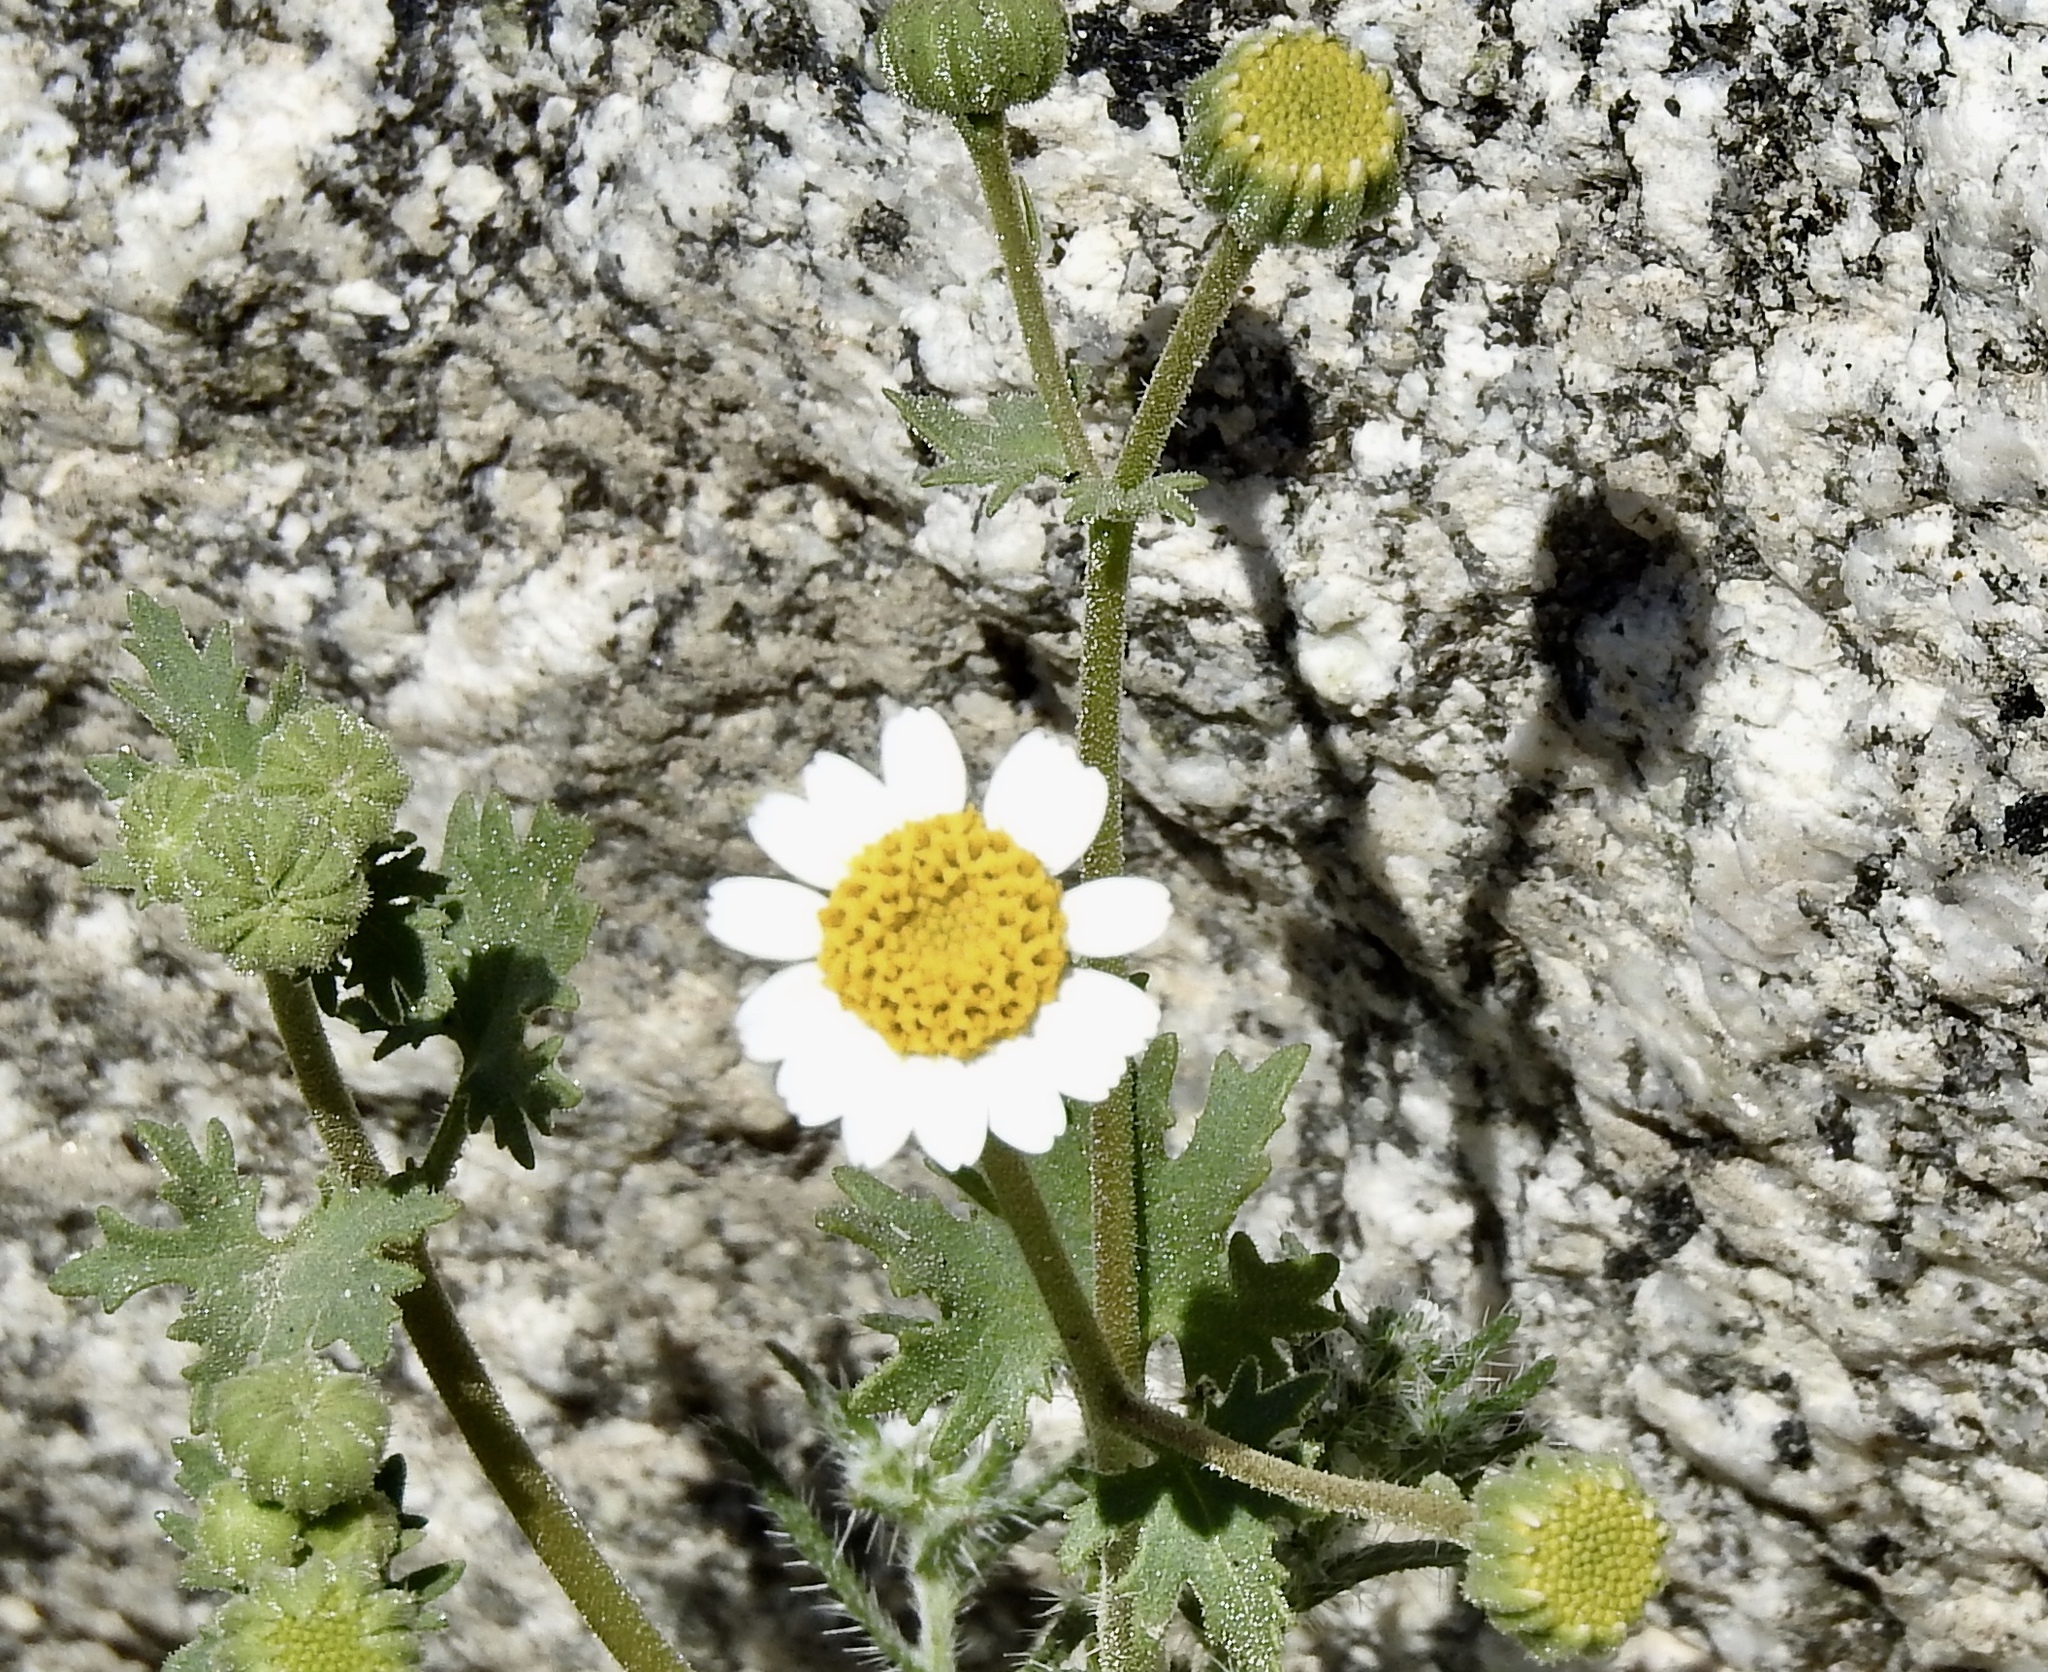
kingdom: Plantae
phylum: Tracheophyta
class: Magnoliopsida
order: Asterales
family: Asteraceae
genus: Laphamia
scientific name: Laphamia emoryi
